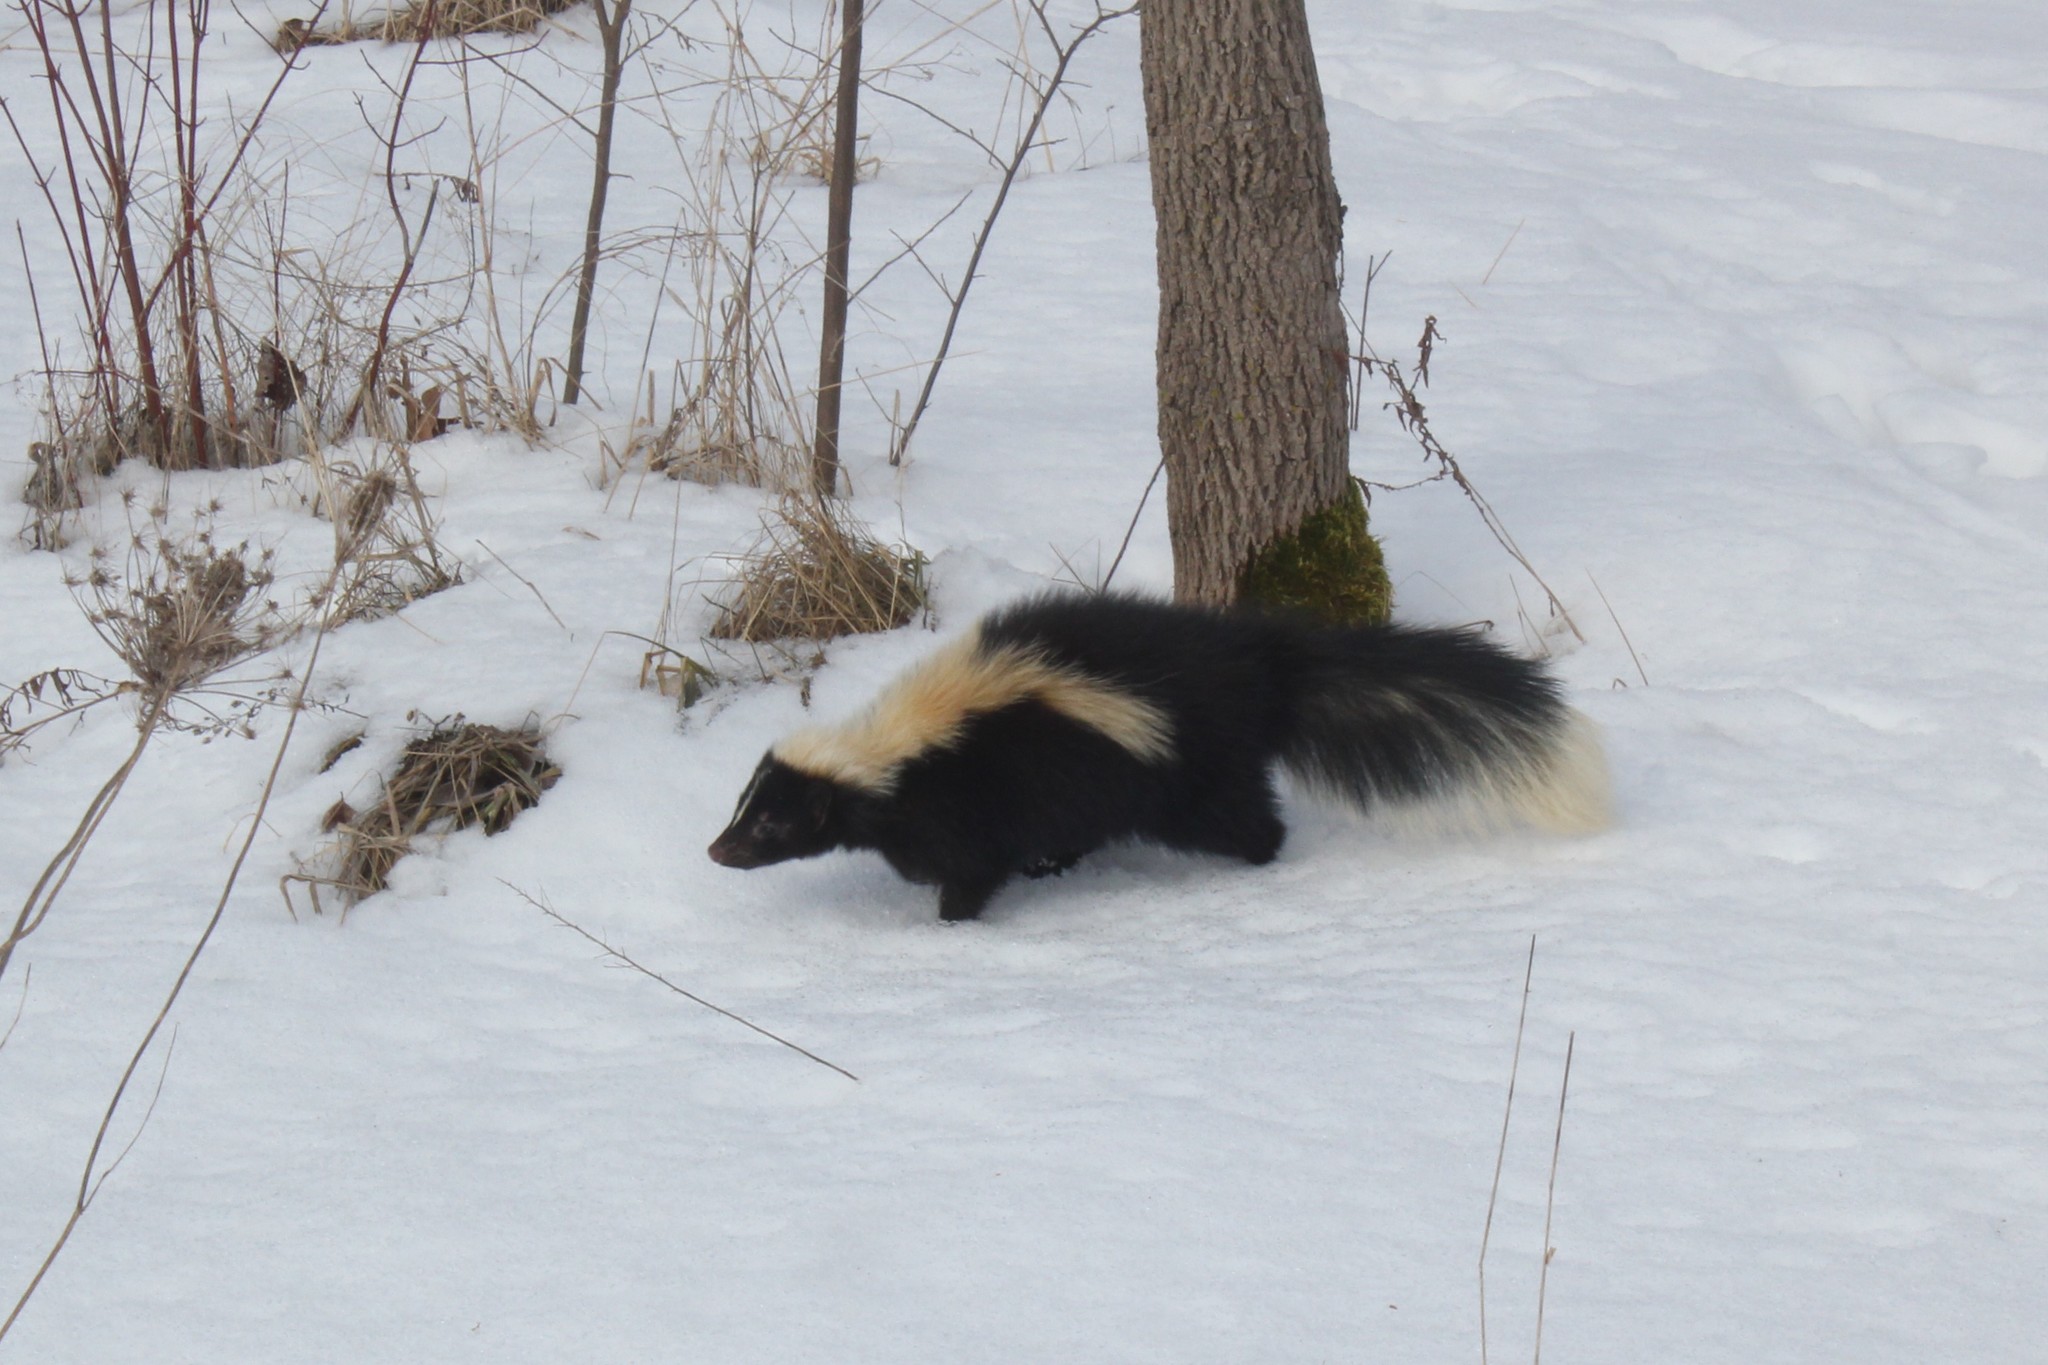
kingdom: Animalia
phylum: Chordata
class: Mammalia
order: Carnivora
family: Mephitidae
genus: Mephitis
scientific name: Mephitis mephitis
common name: Striped skunk
